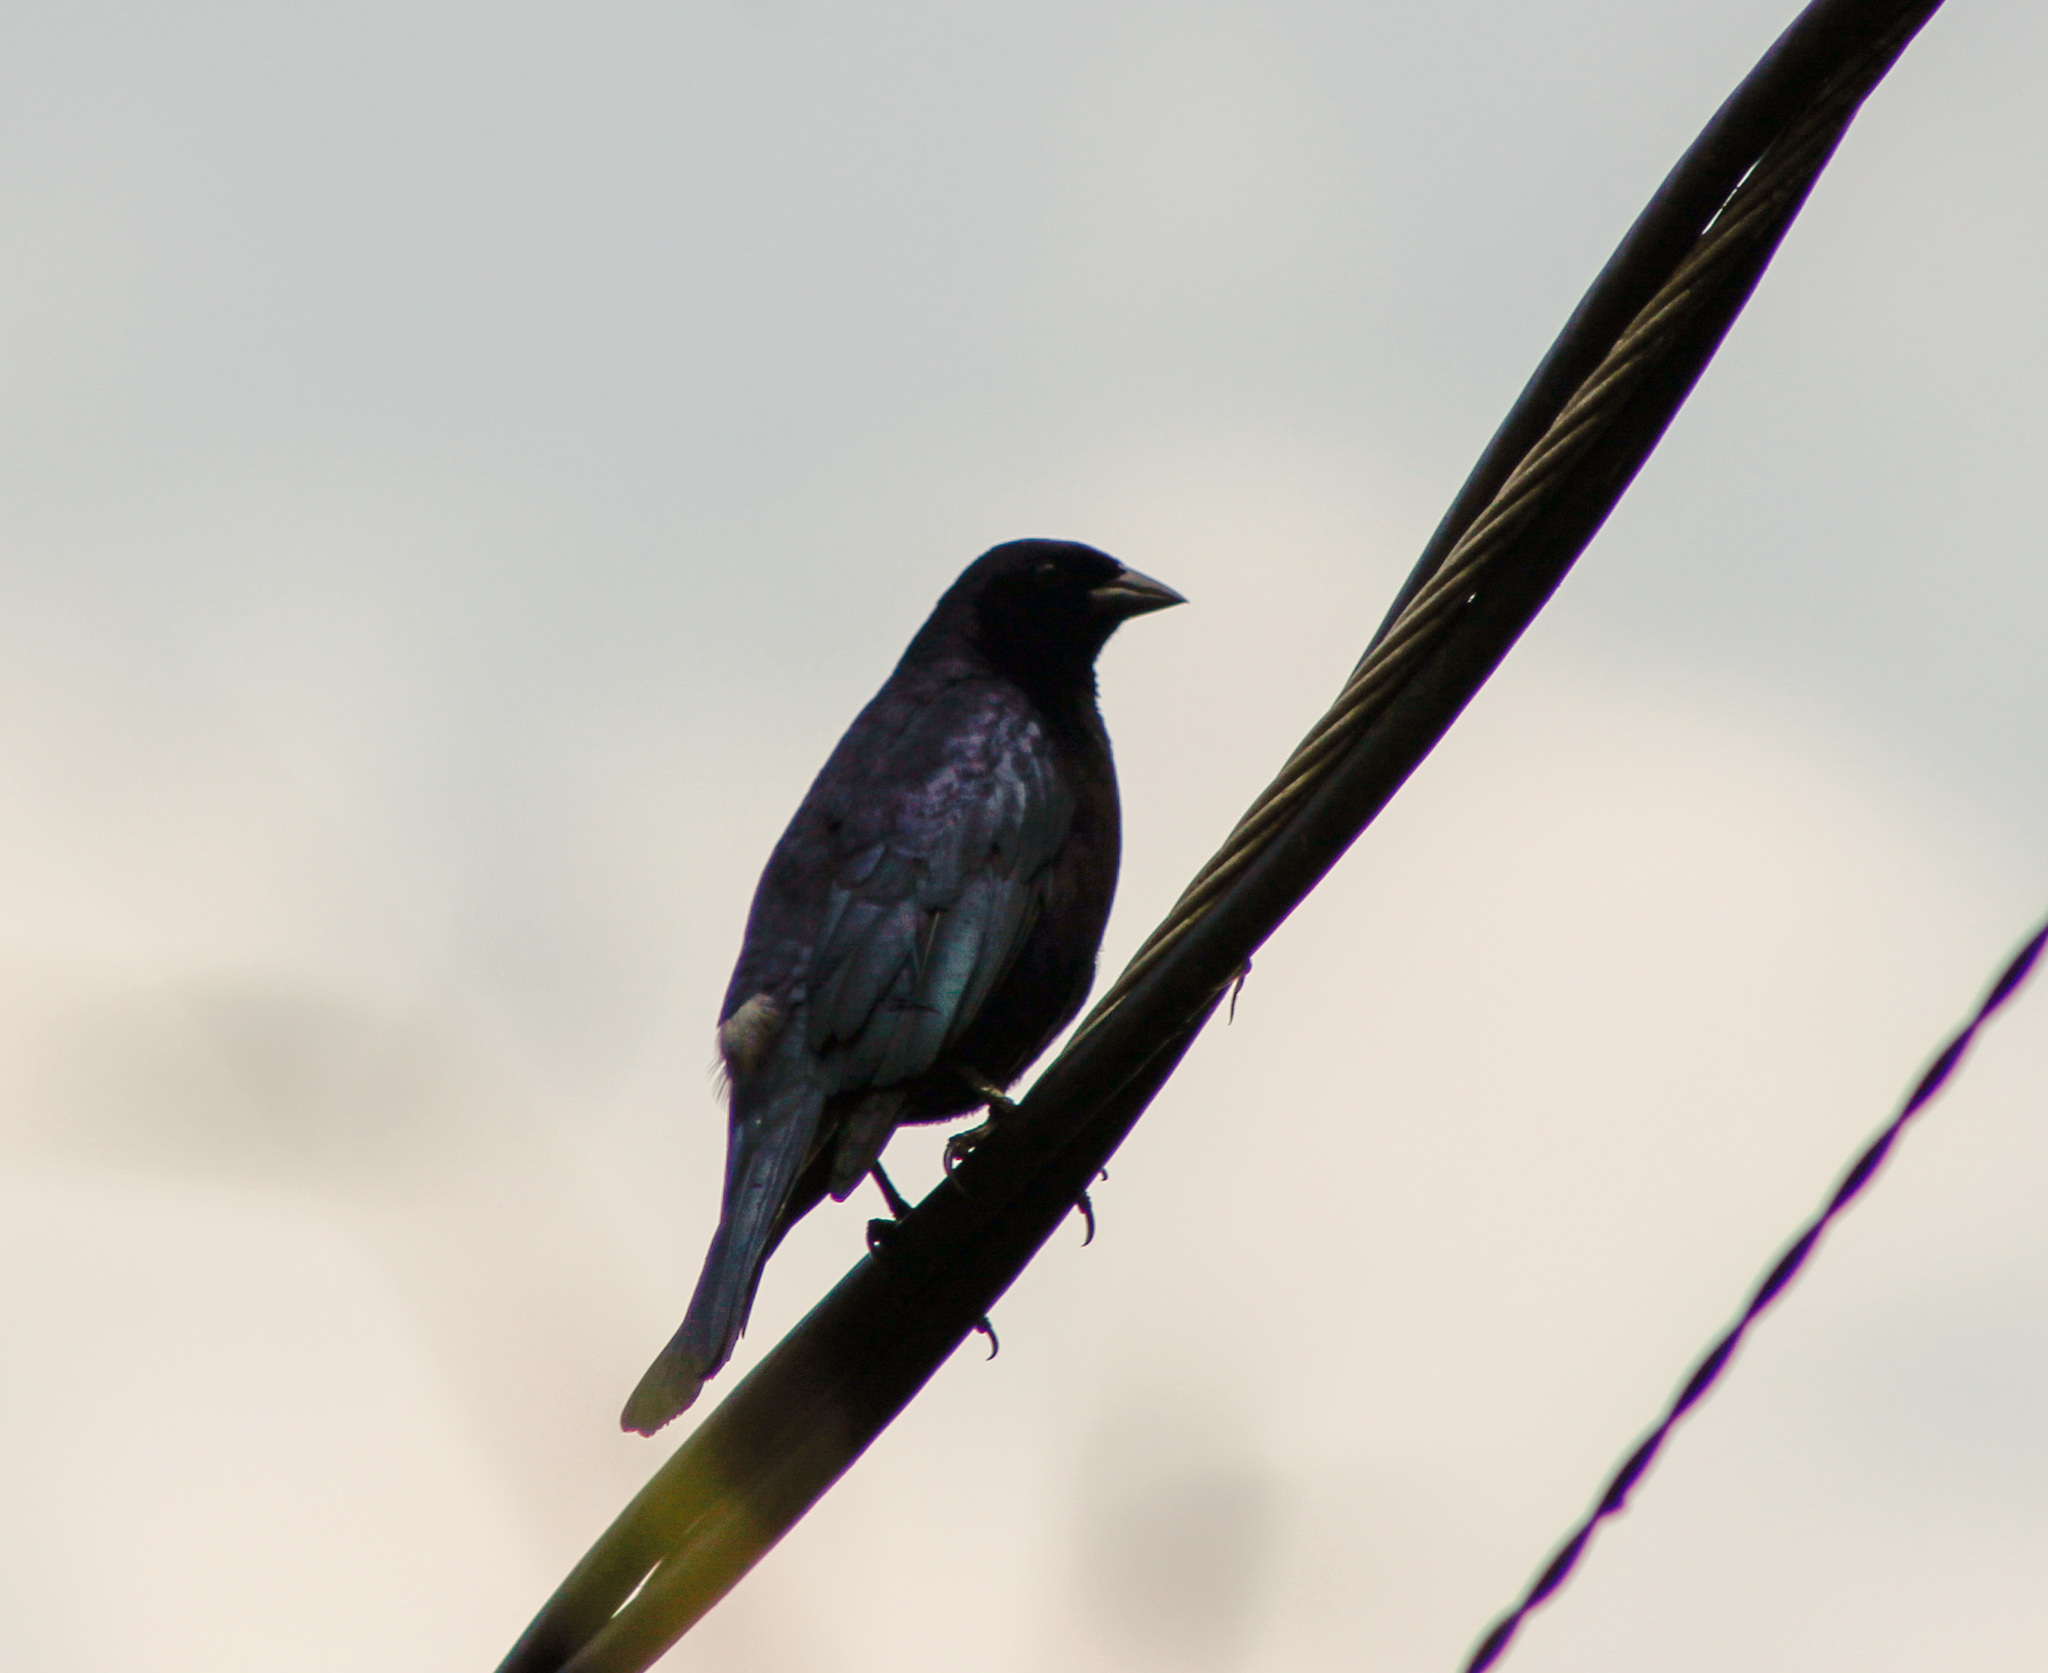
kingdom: Animalia
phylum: Chordata
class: Aves
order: Passeriformes
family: Icteridae
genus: Molothrus
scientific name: Molothrus bonariensis
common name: Shiny cowbird
